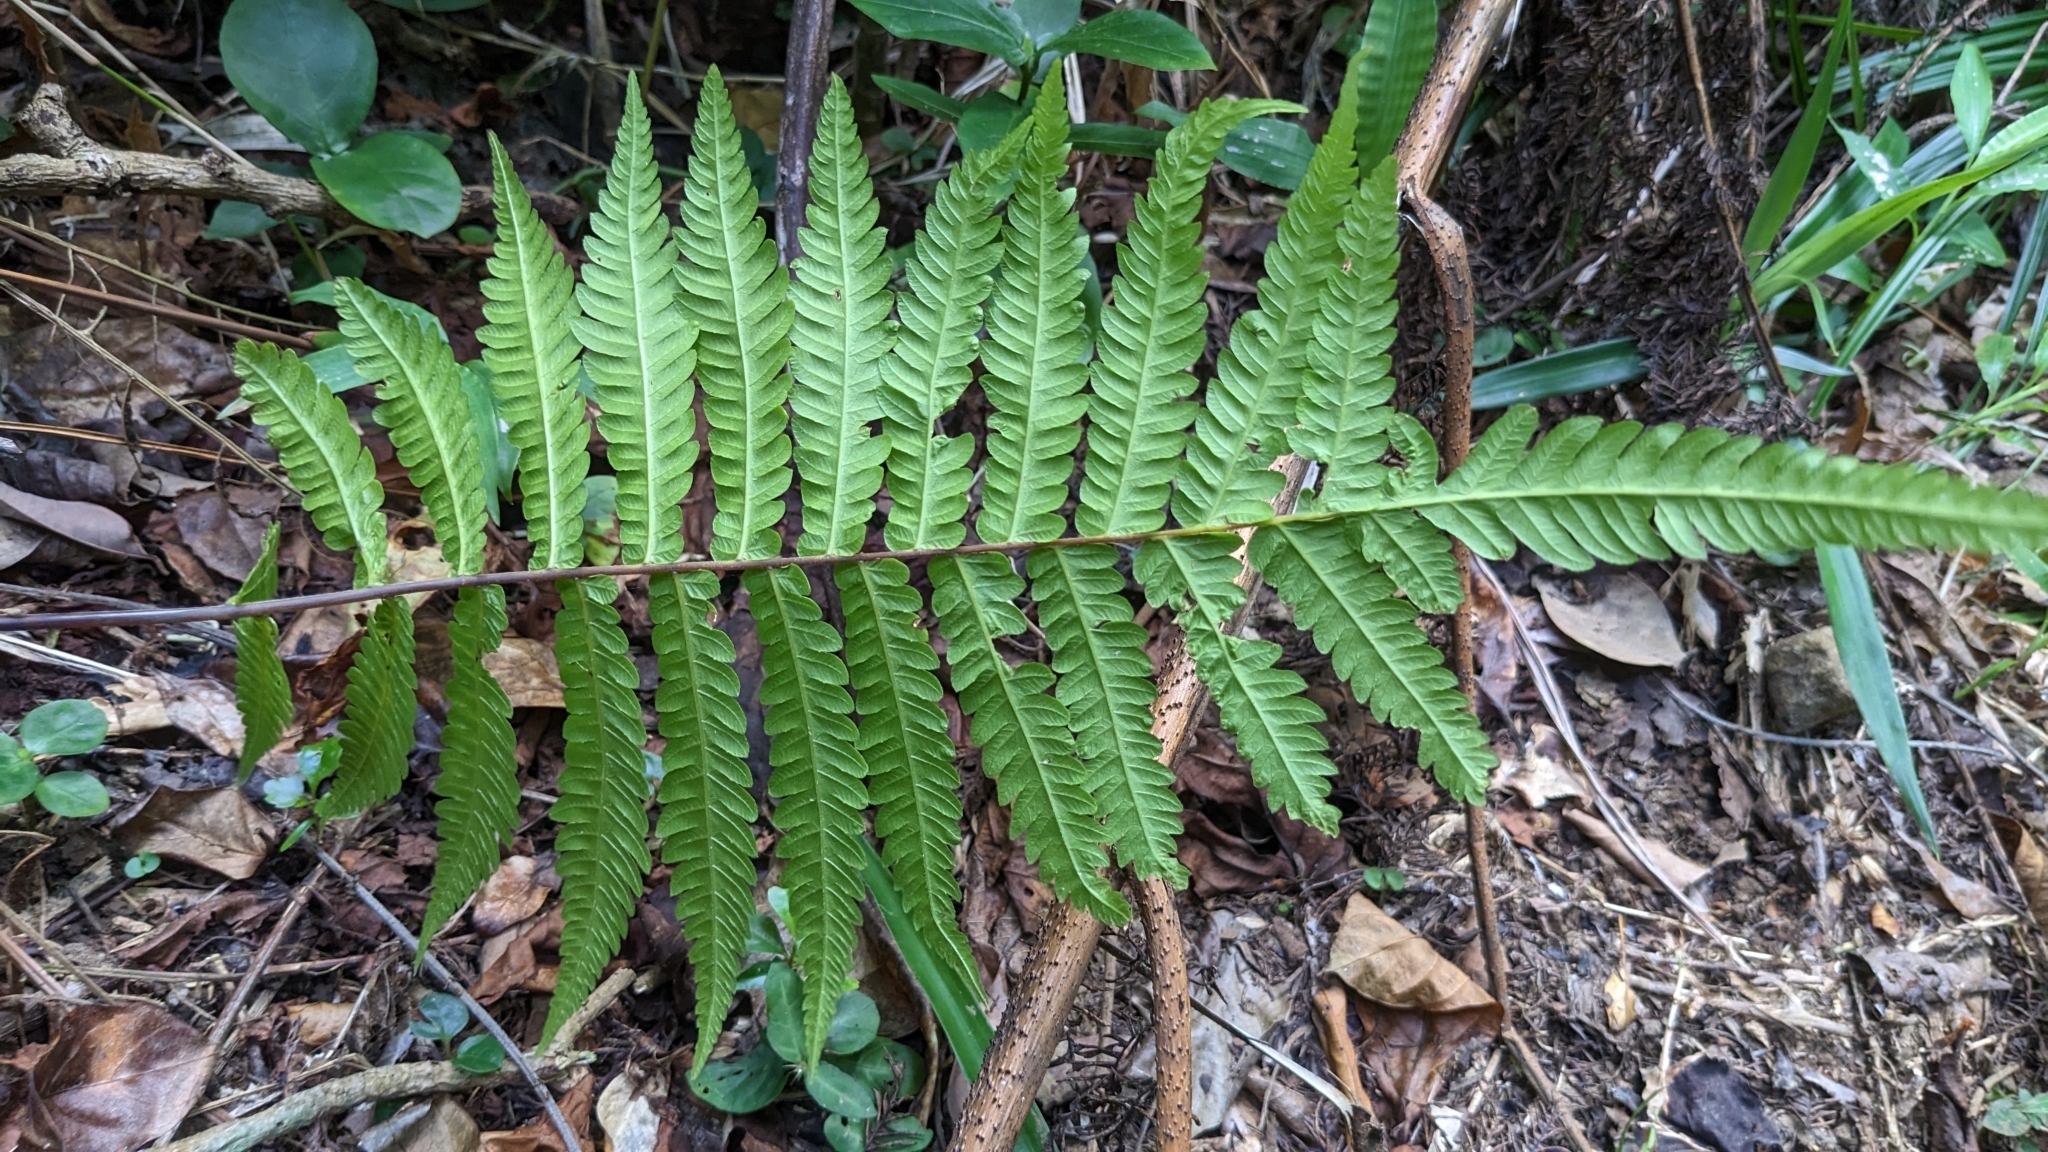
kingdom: Plantae
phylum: Tracheophyta
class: Polypodiopsida
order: Polypodiales
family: Thelypteridaceae
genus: Sphaerostephanos
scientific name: Sphaerostephanos productus
